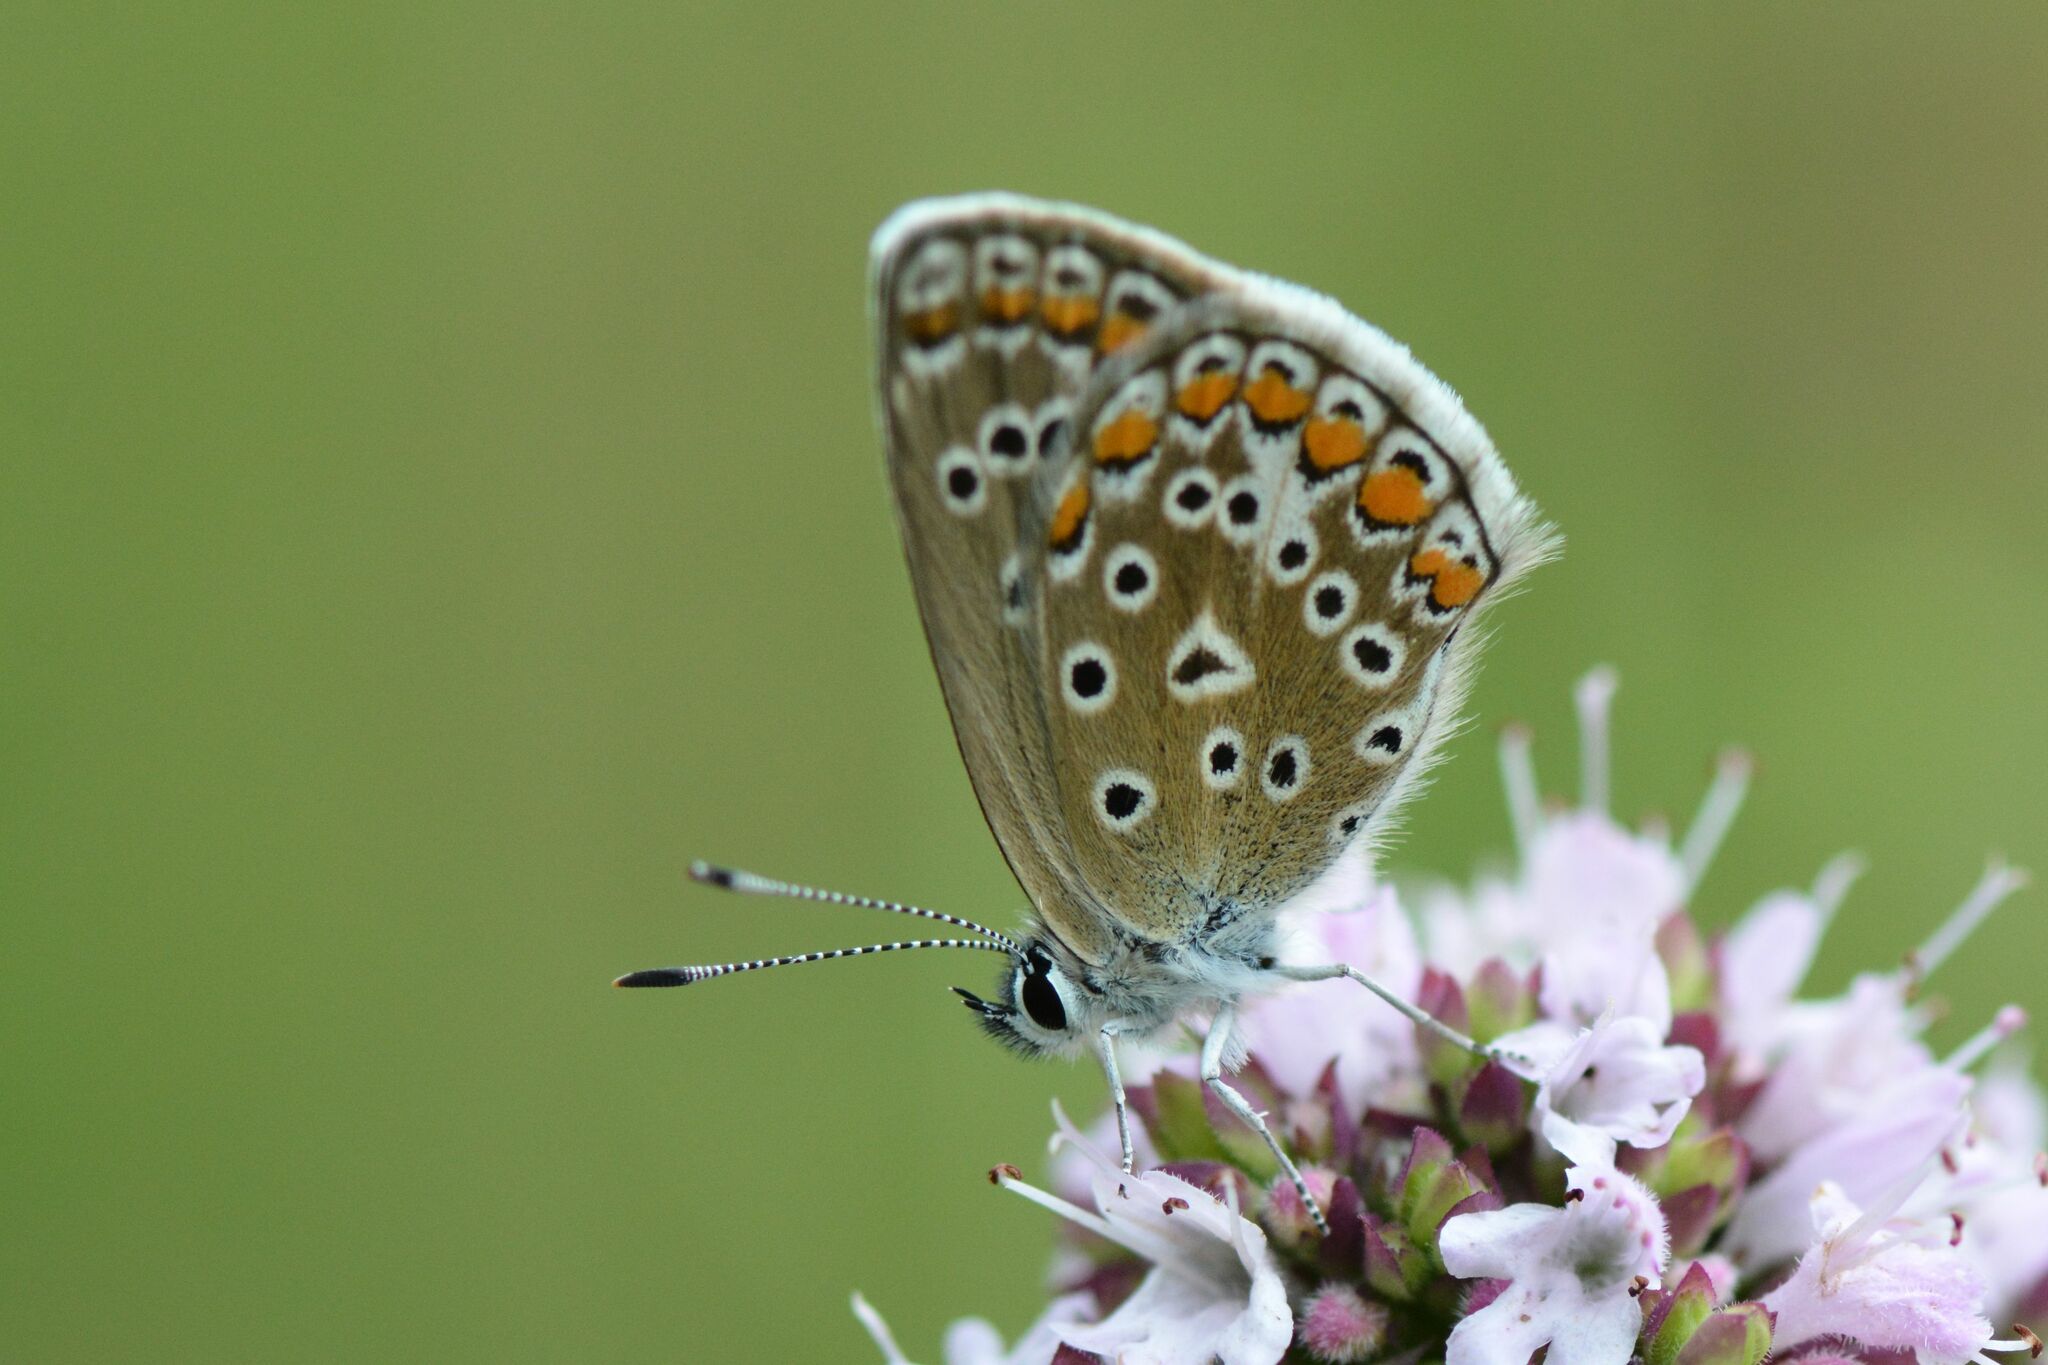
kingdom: Animalia
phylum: Arthropoda
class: Insecta
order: Lepidoptera
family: Lycaenidae
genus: Polyommatus
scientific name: Polyommatus icarus
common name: Common blue
